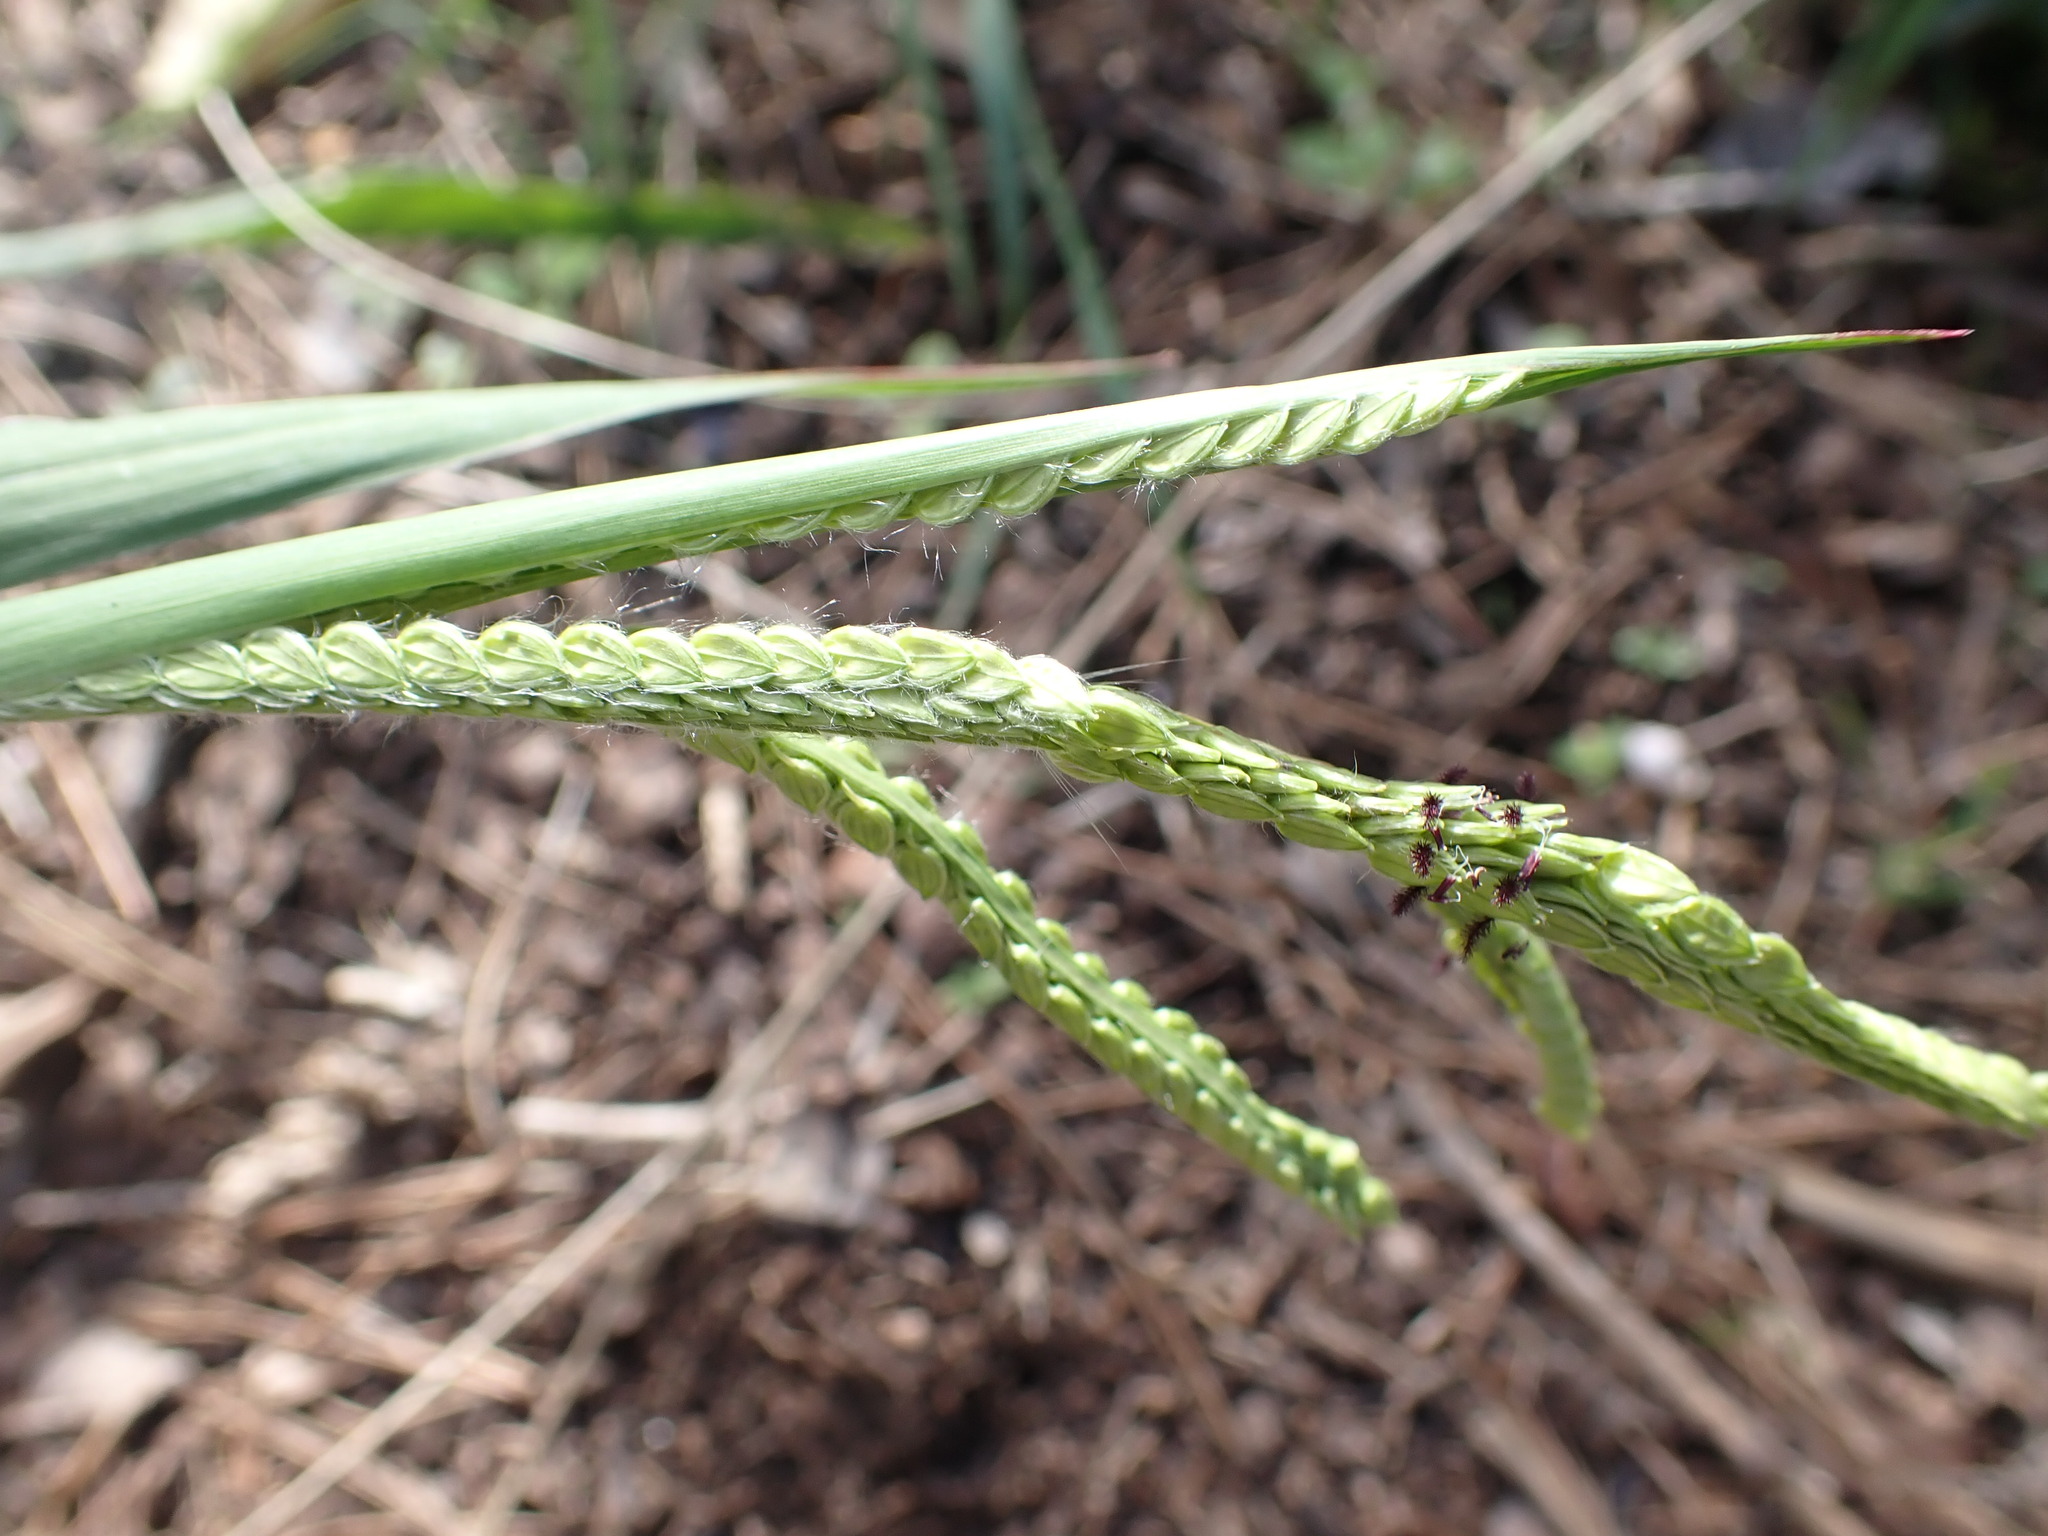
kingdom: Plantae
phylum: Tracheophyta
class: Liliopsida
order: Poales
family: Poaceae
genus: Paspalum
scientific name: Paspalum dilatatum
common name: Dallisgrass
